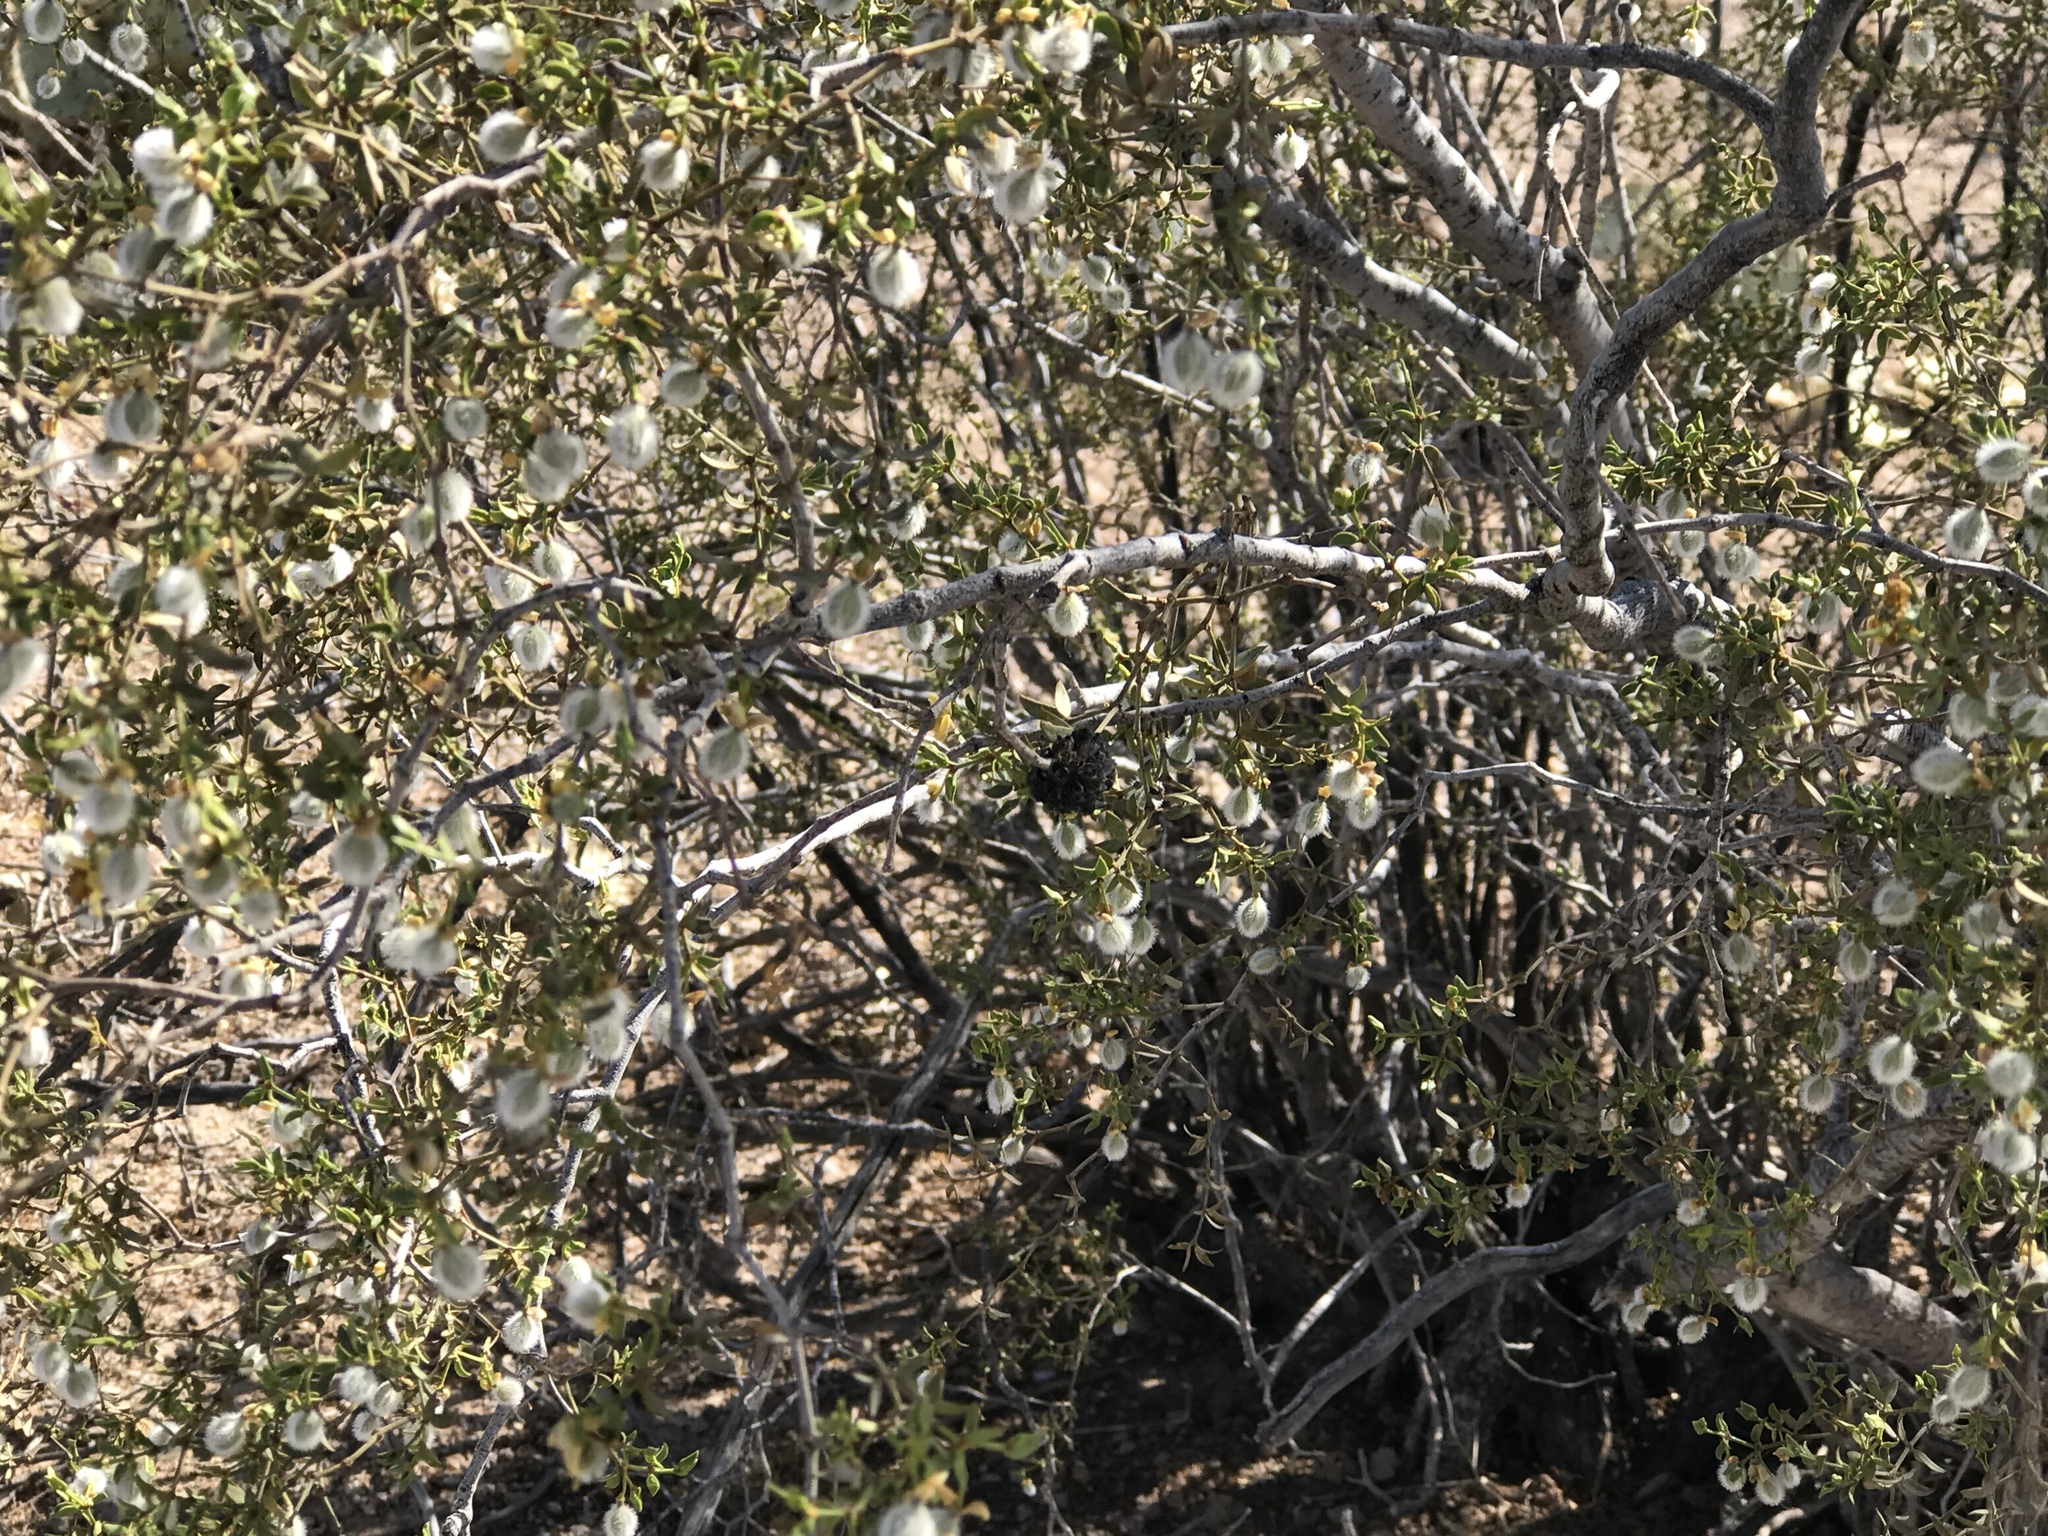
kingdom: Plantae
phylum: Tracheophyta
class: Magnoliopsida
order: Zygophyllales
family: Zygophyllaceae
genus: Larrea
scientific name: Larrea tridentata
